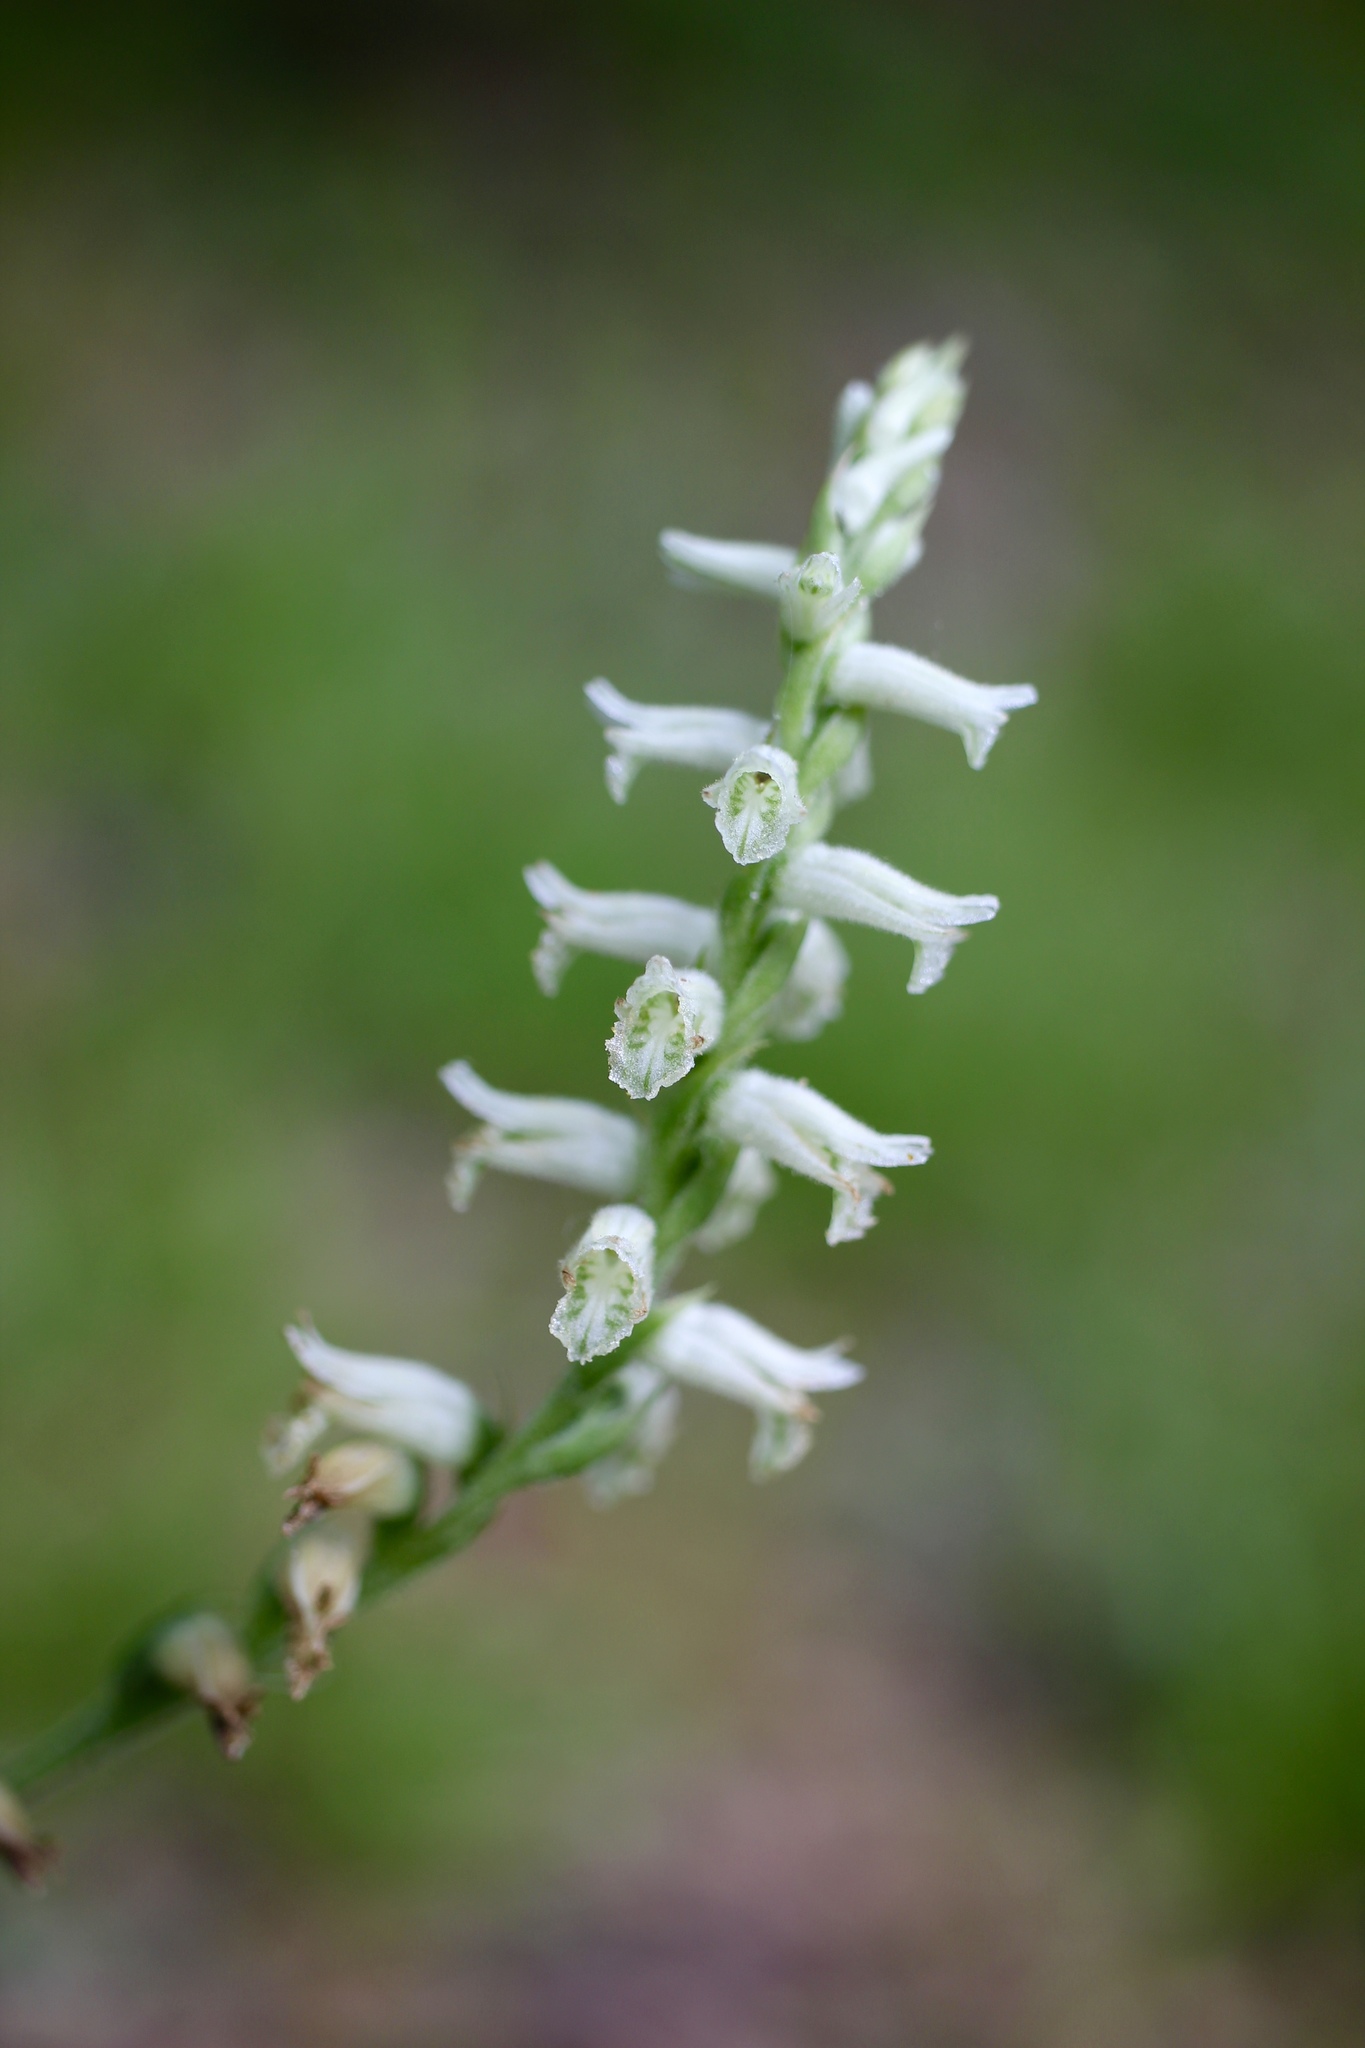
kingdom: Plantae
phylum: Tracheophyta
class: Liliopsida
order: Asparagales
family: Orchidaceae
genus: Spiranthes
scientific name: Spiranthes praecox
